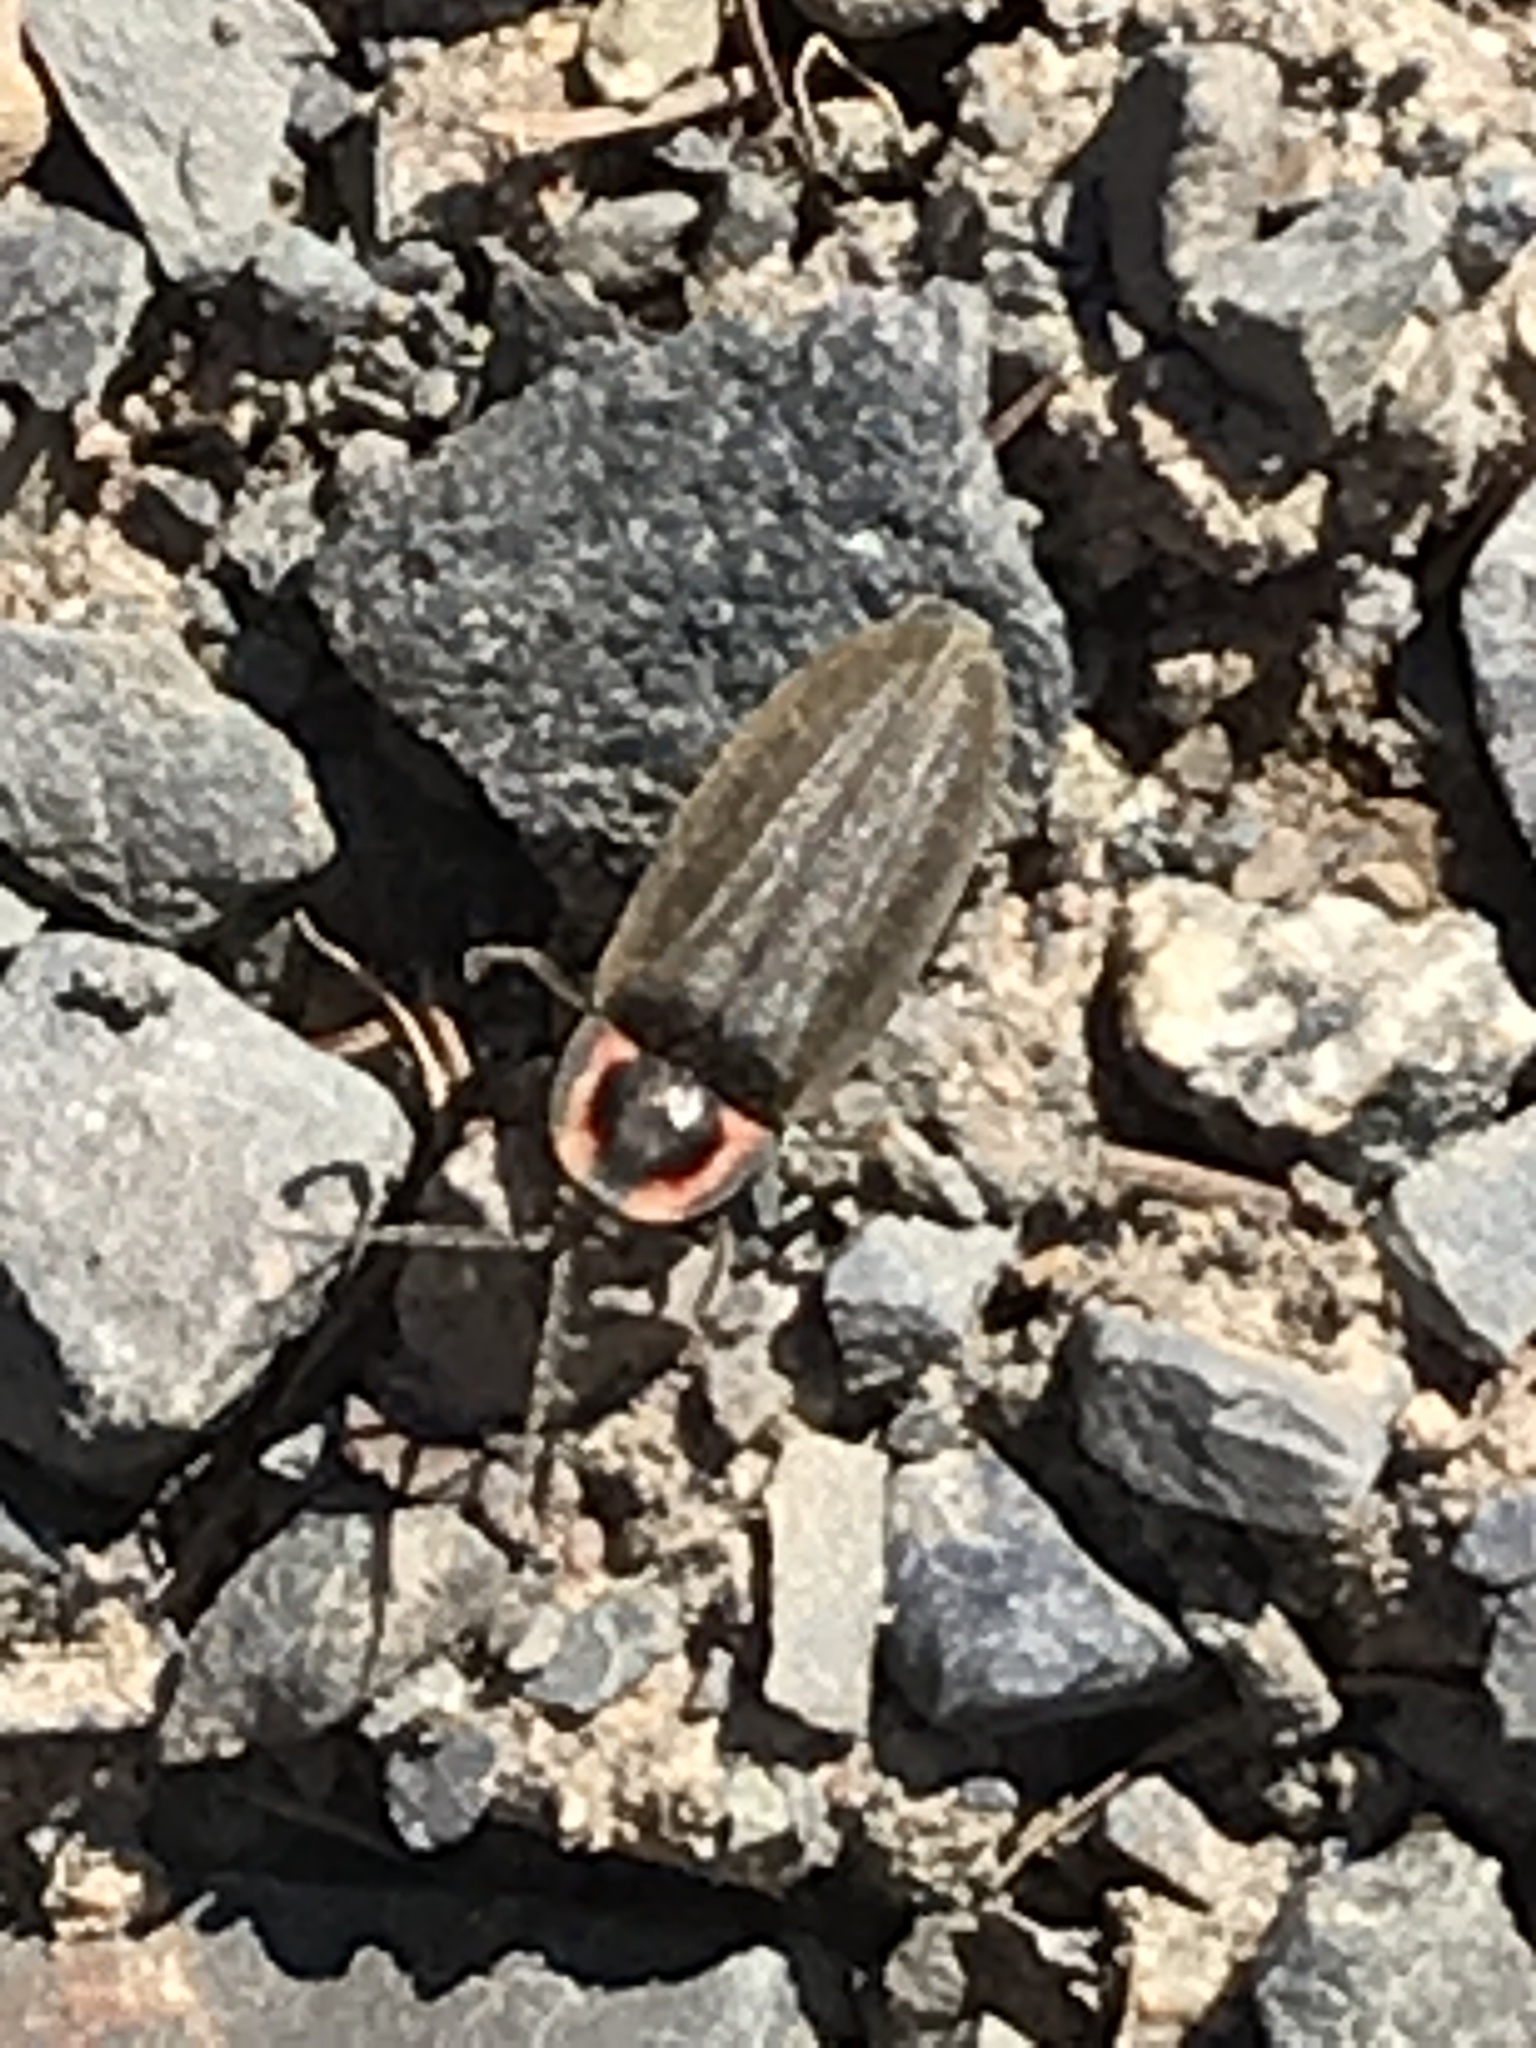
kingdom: Animalia
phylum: Arthropoda
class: Insecta
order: Coleoptera
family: Lampyridae
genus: Photinus
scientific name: Photinus corrusca
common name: Winter firefly
